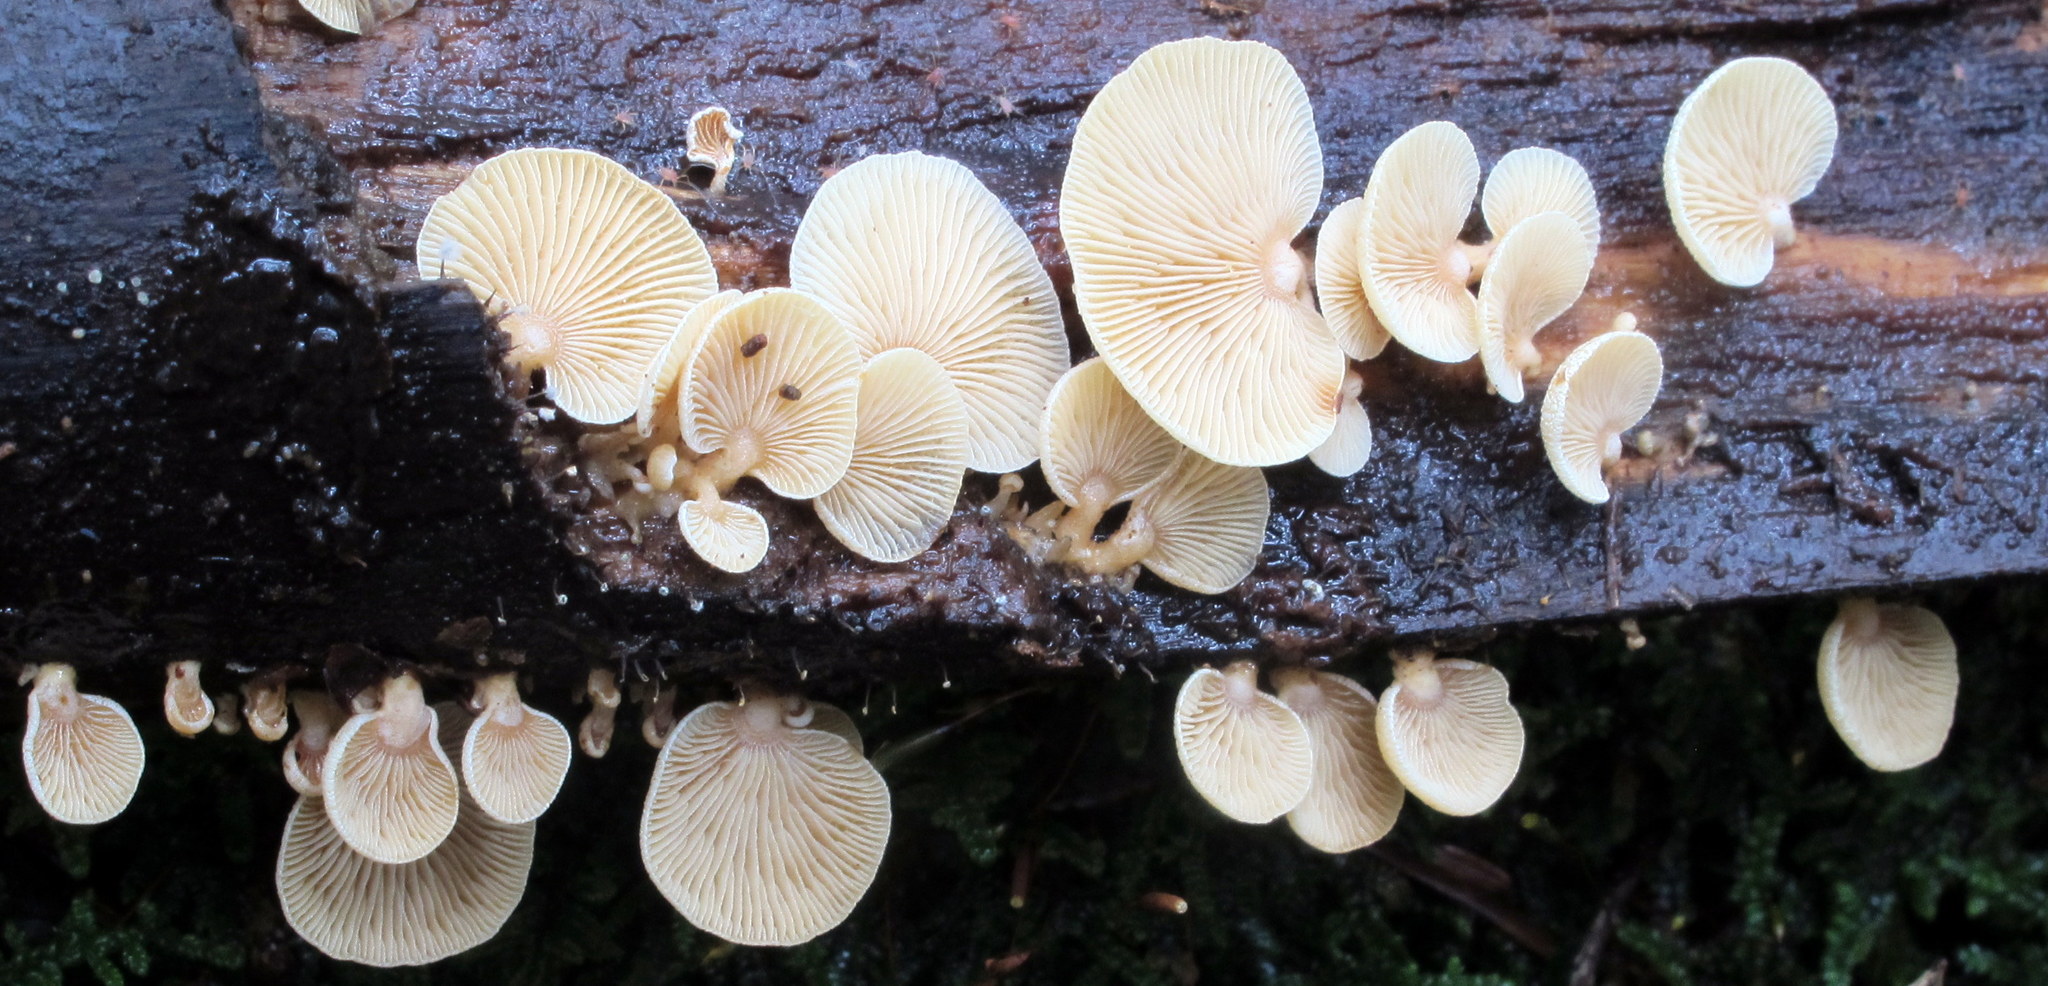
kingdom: Fungi
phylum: Basidiomycota
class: Agaricomycetes
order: Agaricales
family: Mycenaceae
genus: Panellus
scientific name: Panellus stipticus
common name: Bitter oysterling
